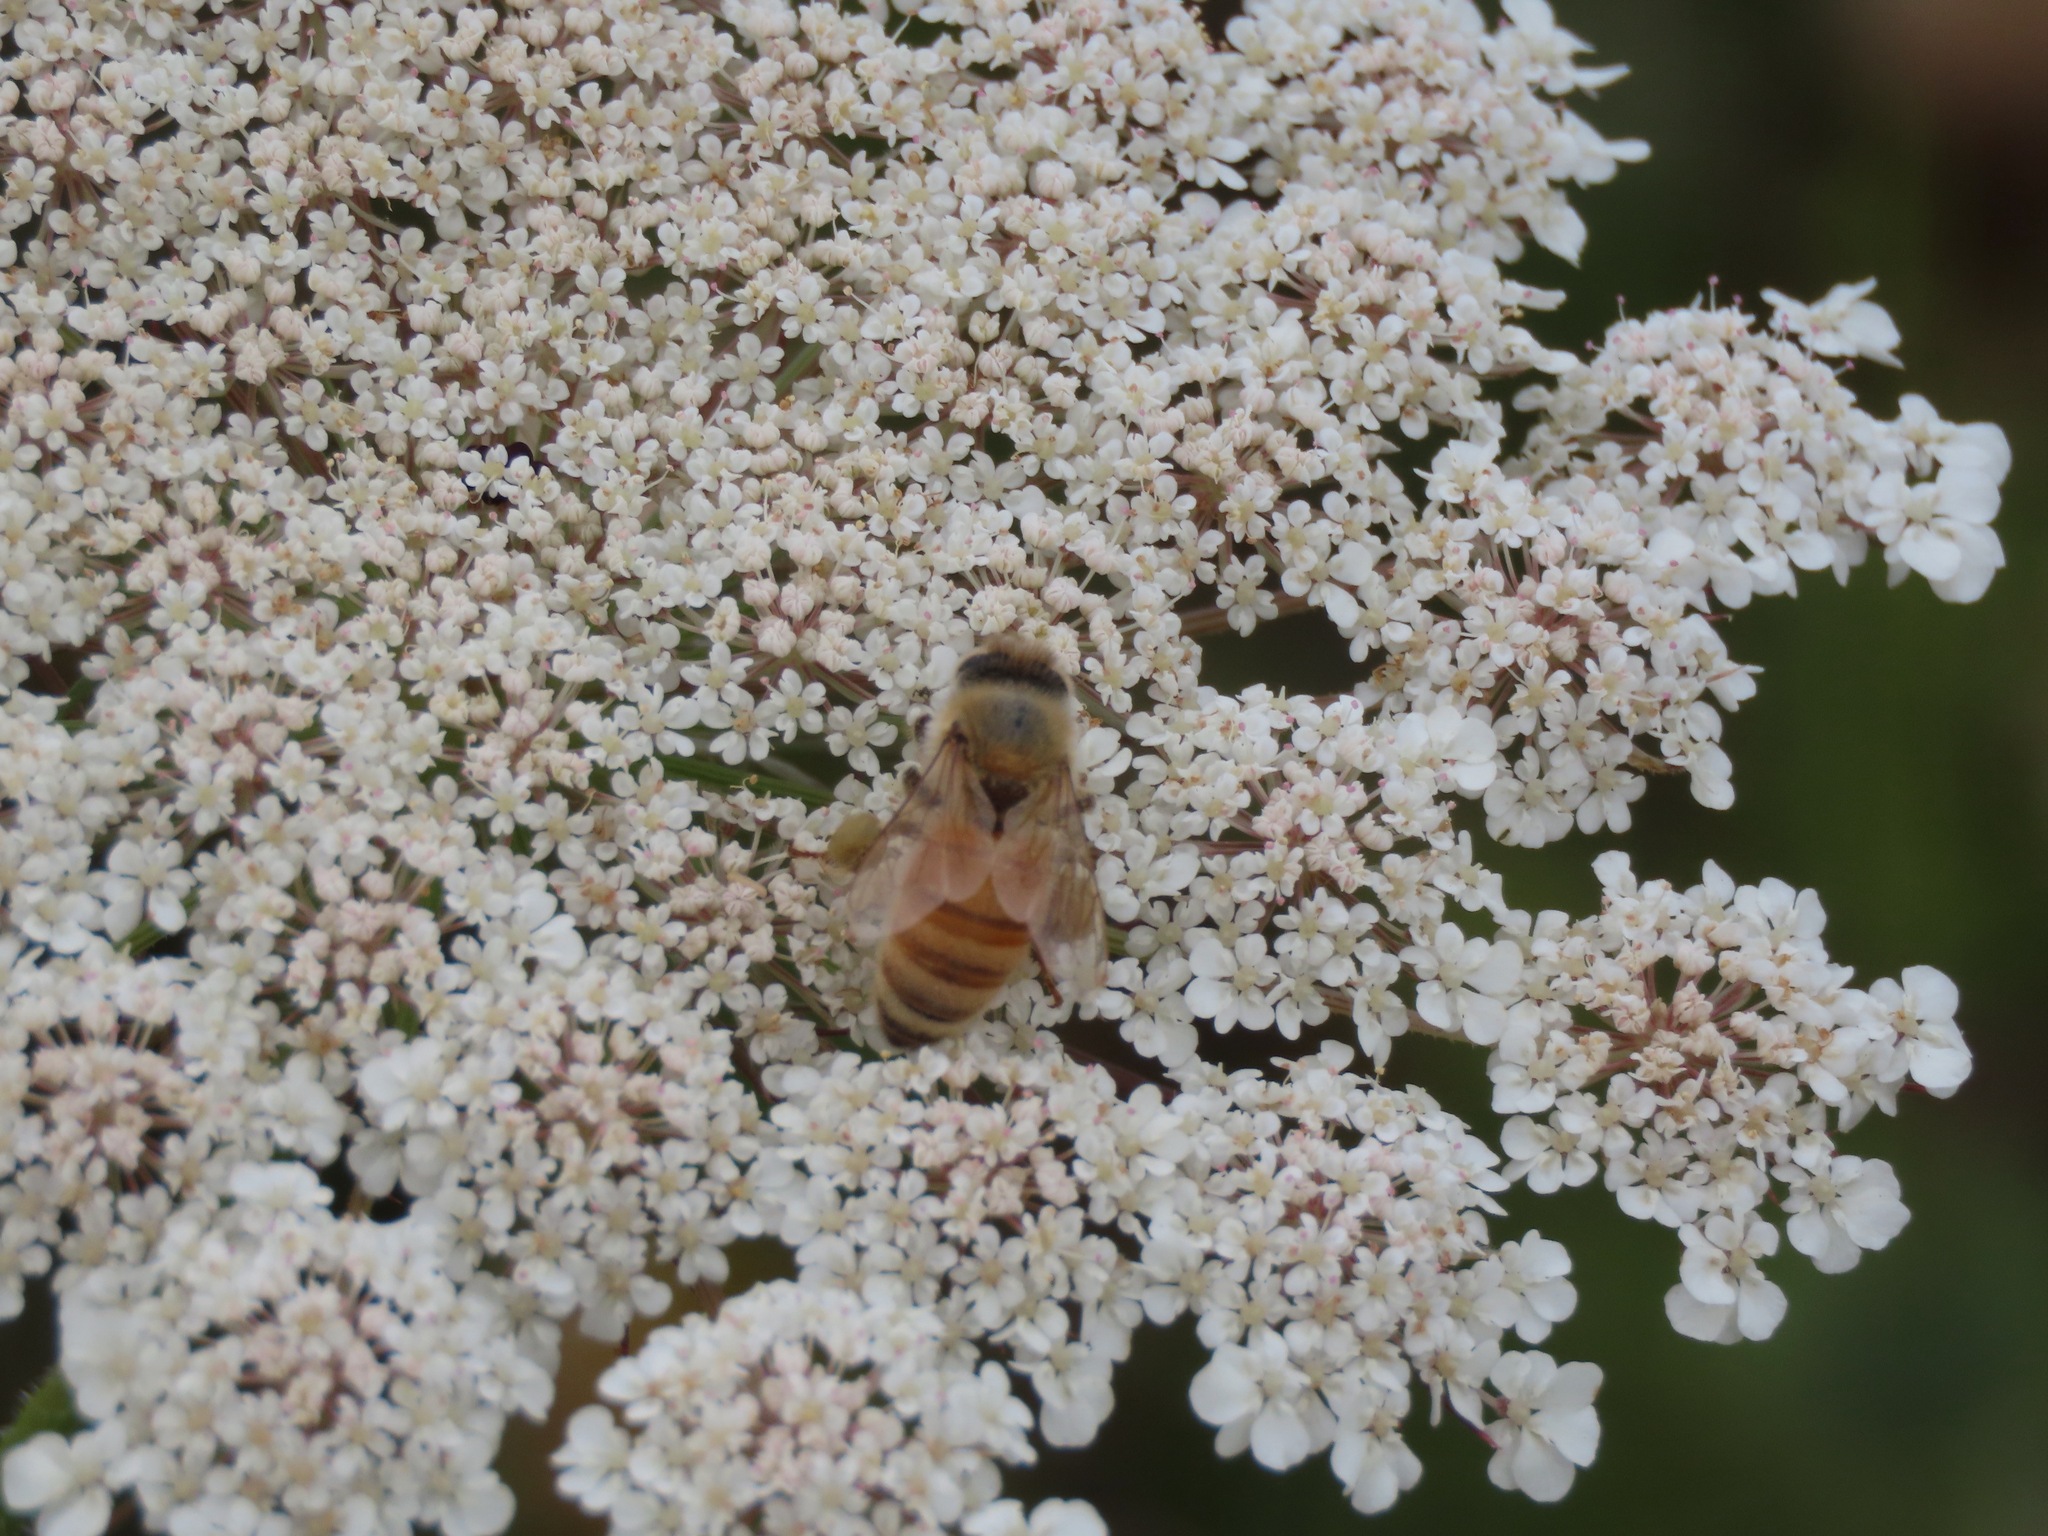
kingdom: Animalia
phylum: Arthropoda
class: Insecta
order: Hymenoptera
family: Apidae
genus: Apis
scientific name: Apis mellifera
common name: Honey bee
